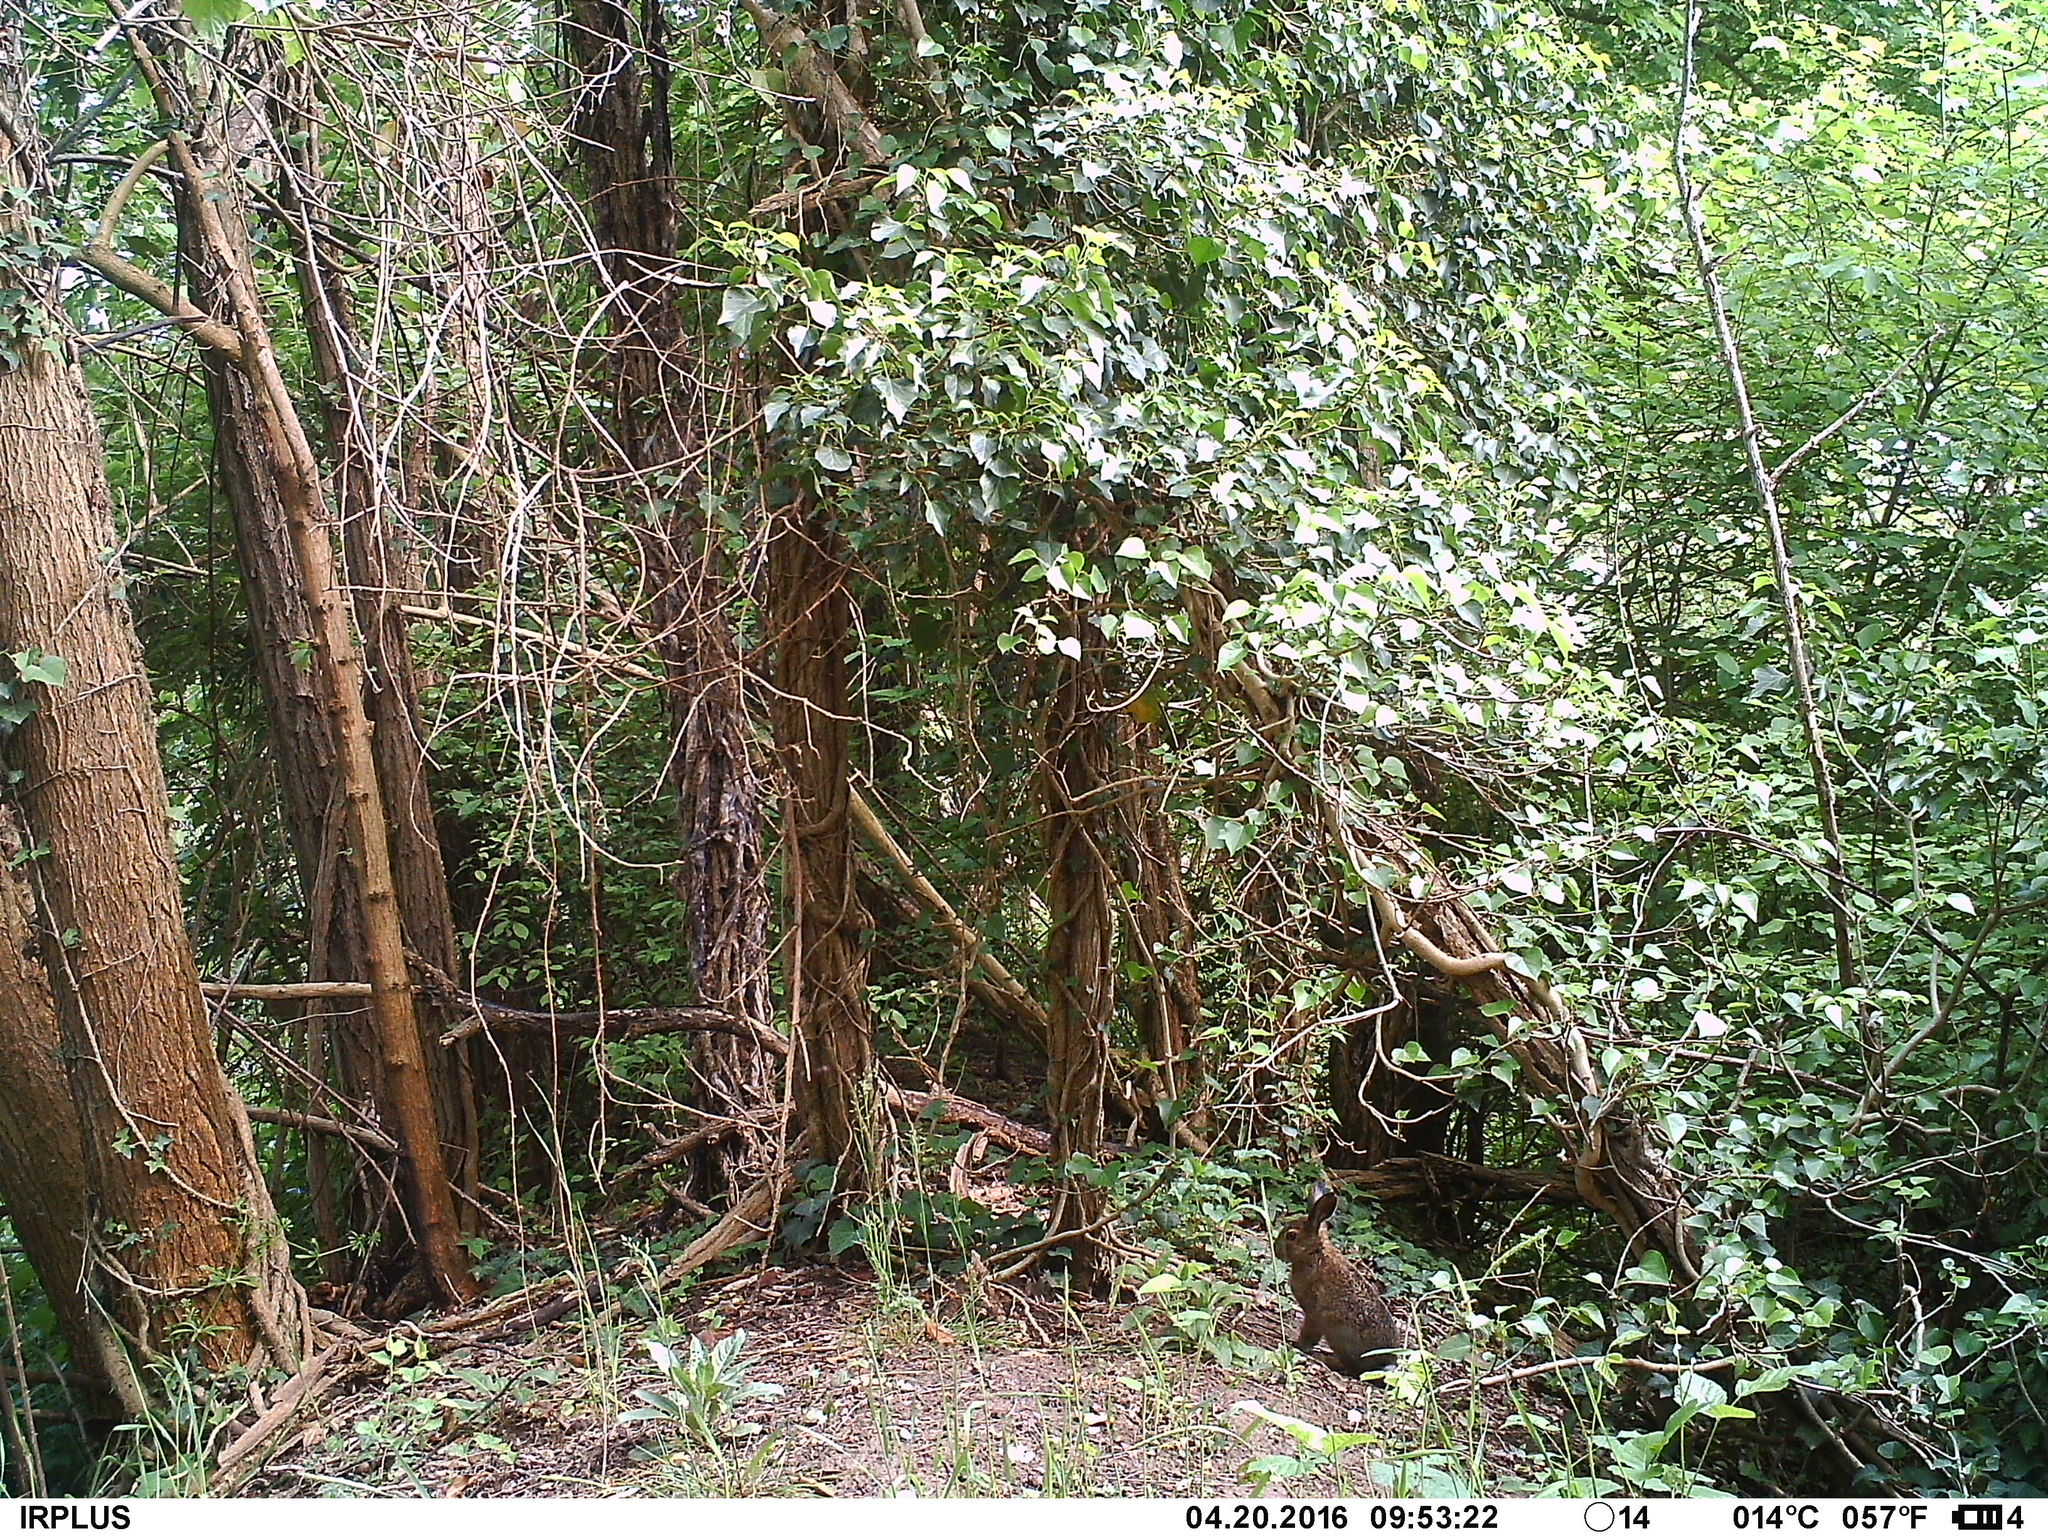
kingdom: Animalia
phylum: Chordata
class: Mammalia
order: Lagomorpha
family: Leporidae
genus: Lepus
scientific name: Lepus europaeus
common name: European hare
